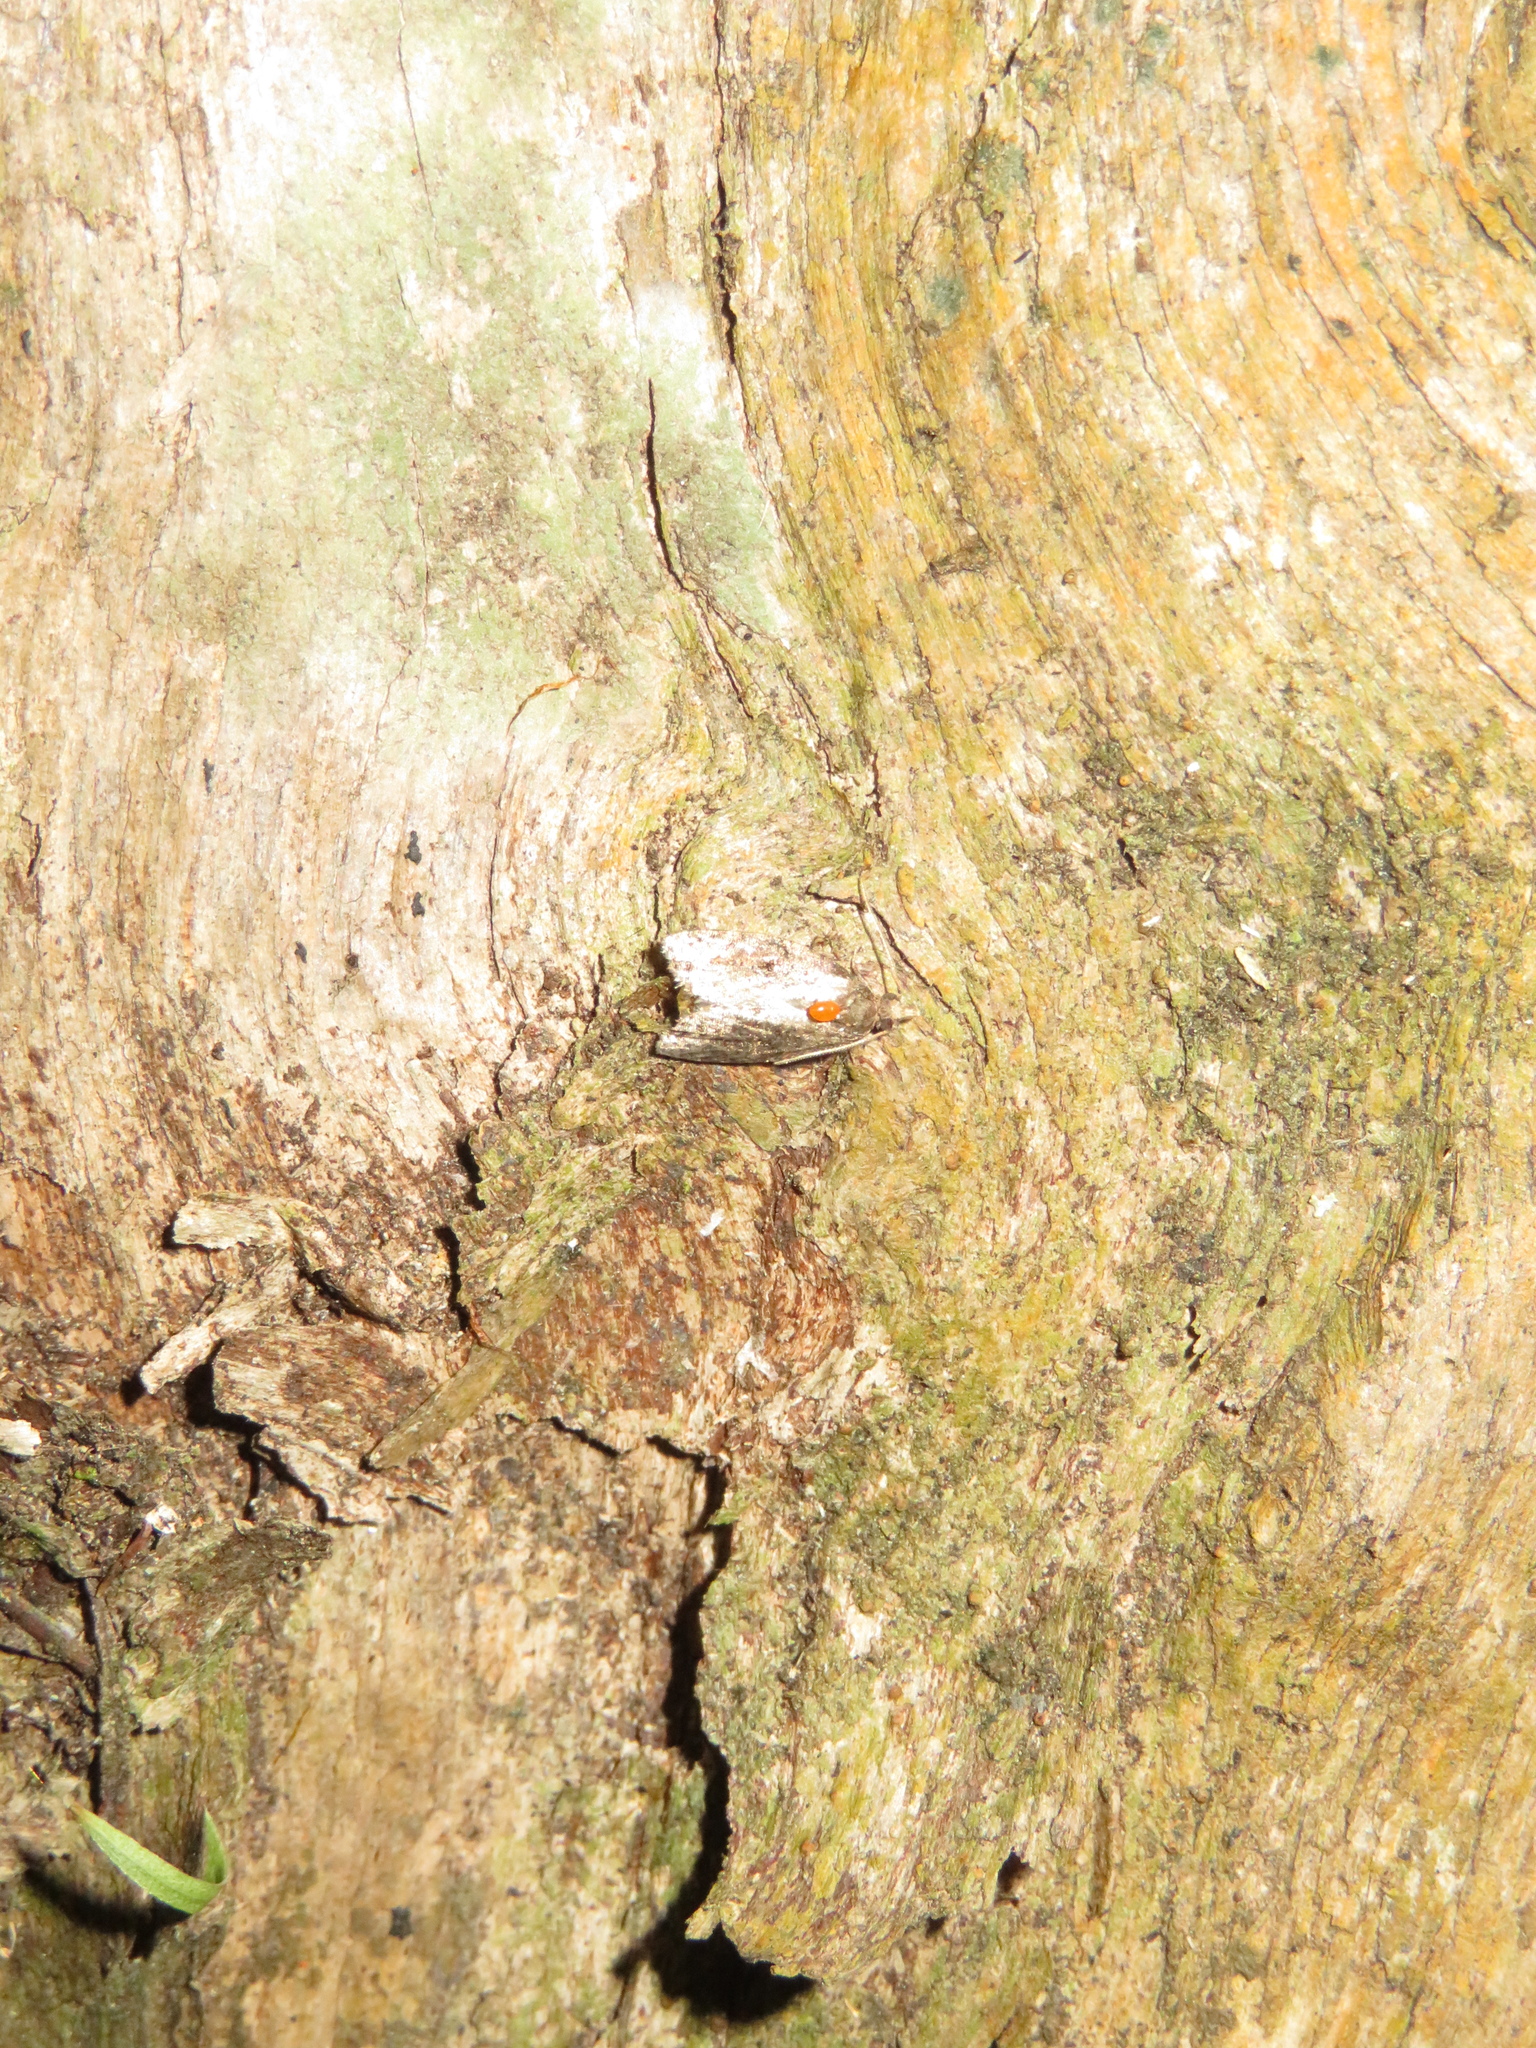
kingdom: Animalia
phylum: Arthropoda
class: Insecta
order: Lepidoptera
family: Tortricidae
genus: Capua
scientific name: Capua intractana
